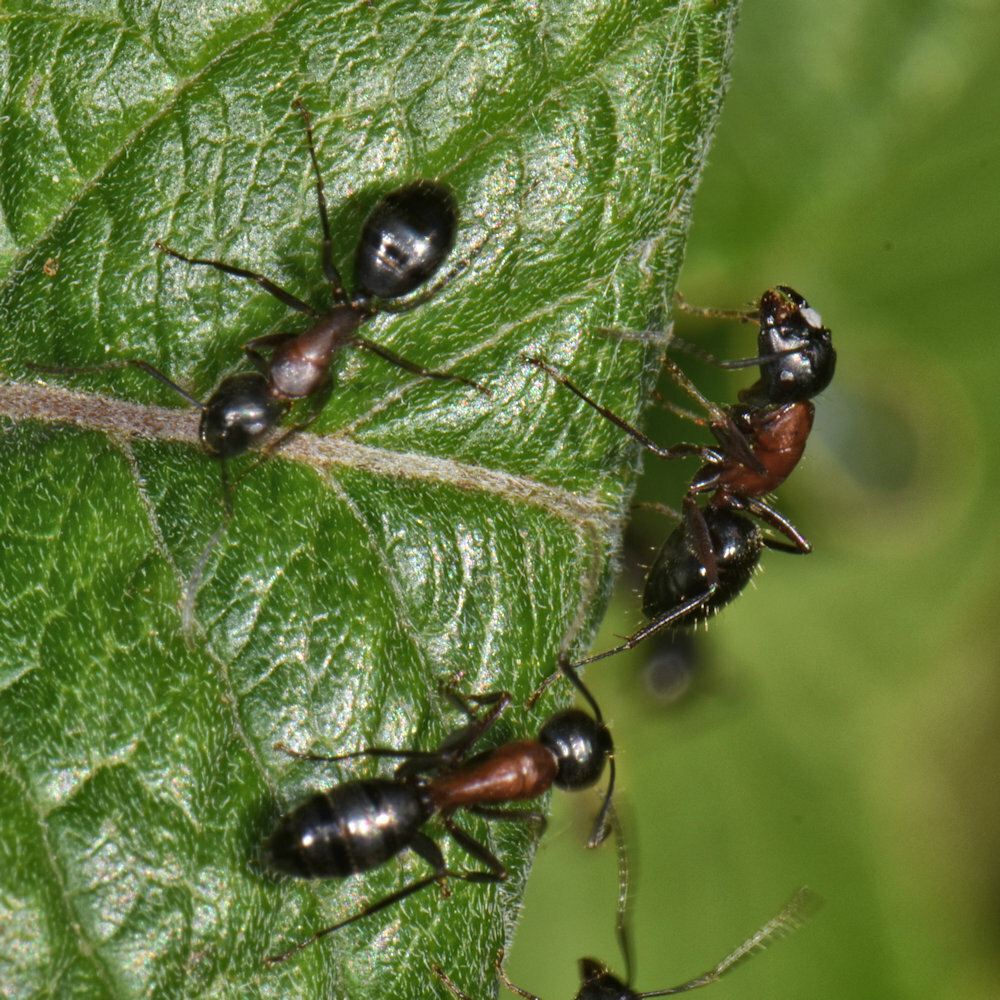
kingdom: Animalia
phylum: Arthropoda
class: Insecta
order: Hymenoptera
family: Formicidae
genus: Camponotus
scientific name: Camponotus novaeboracensis
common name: New york carpenter ant
